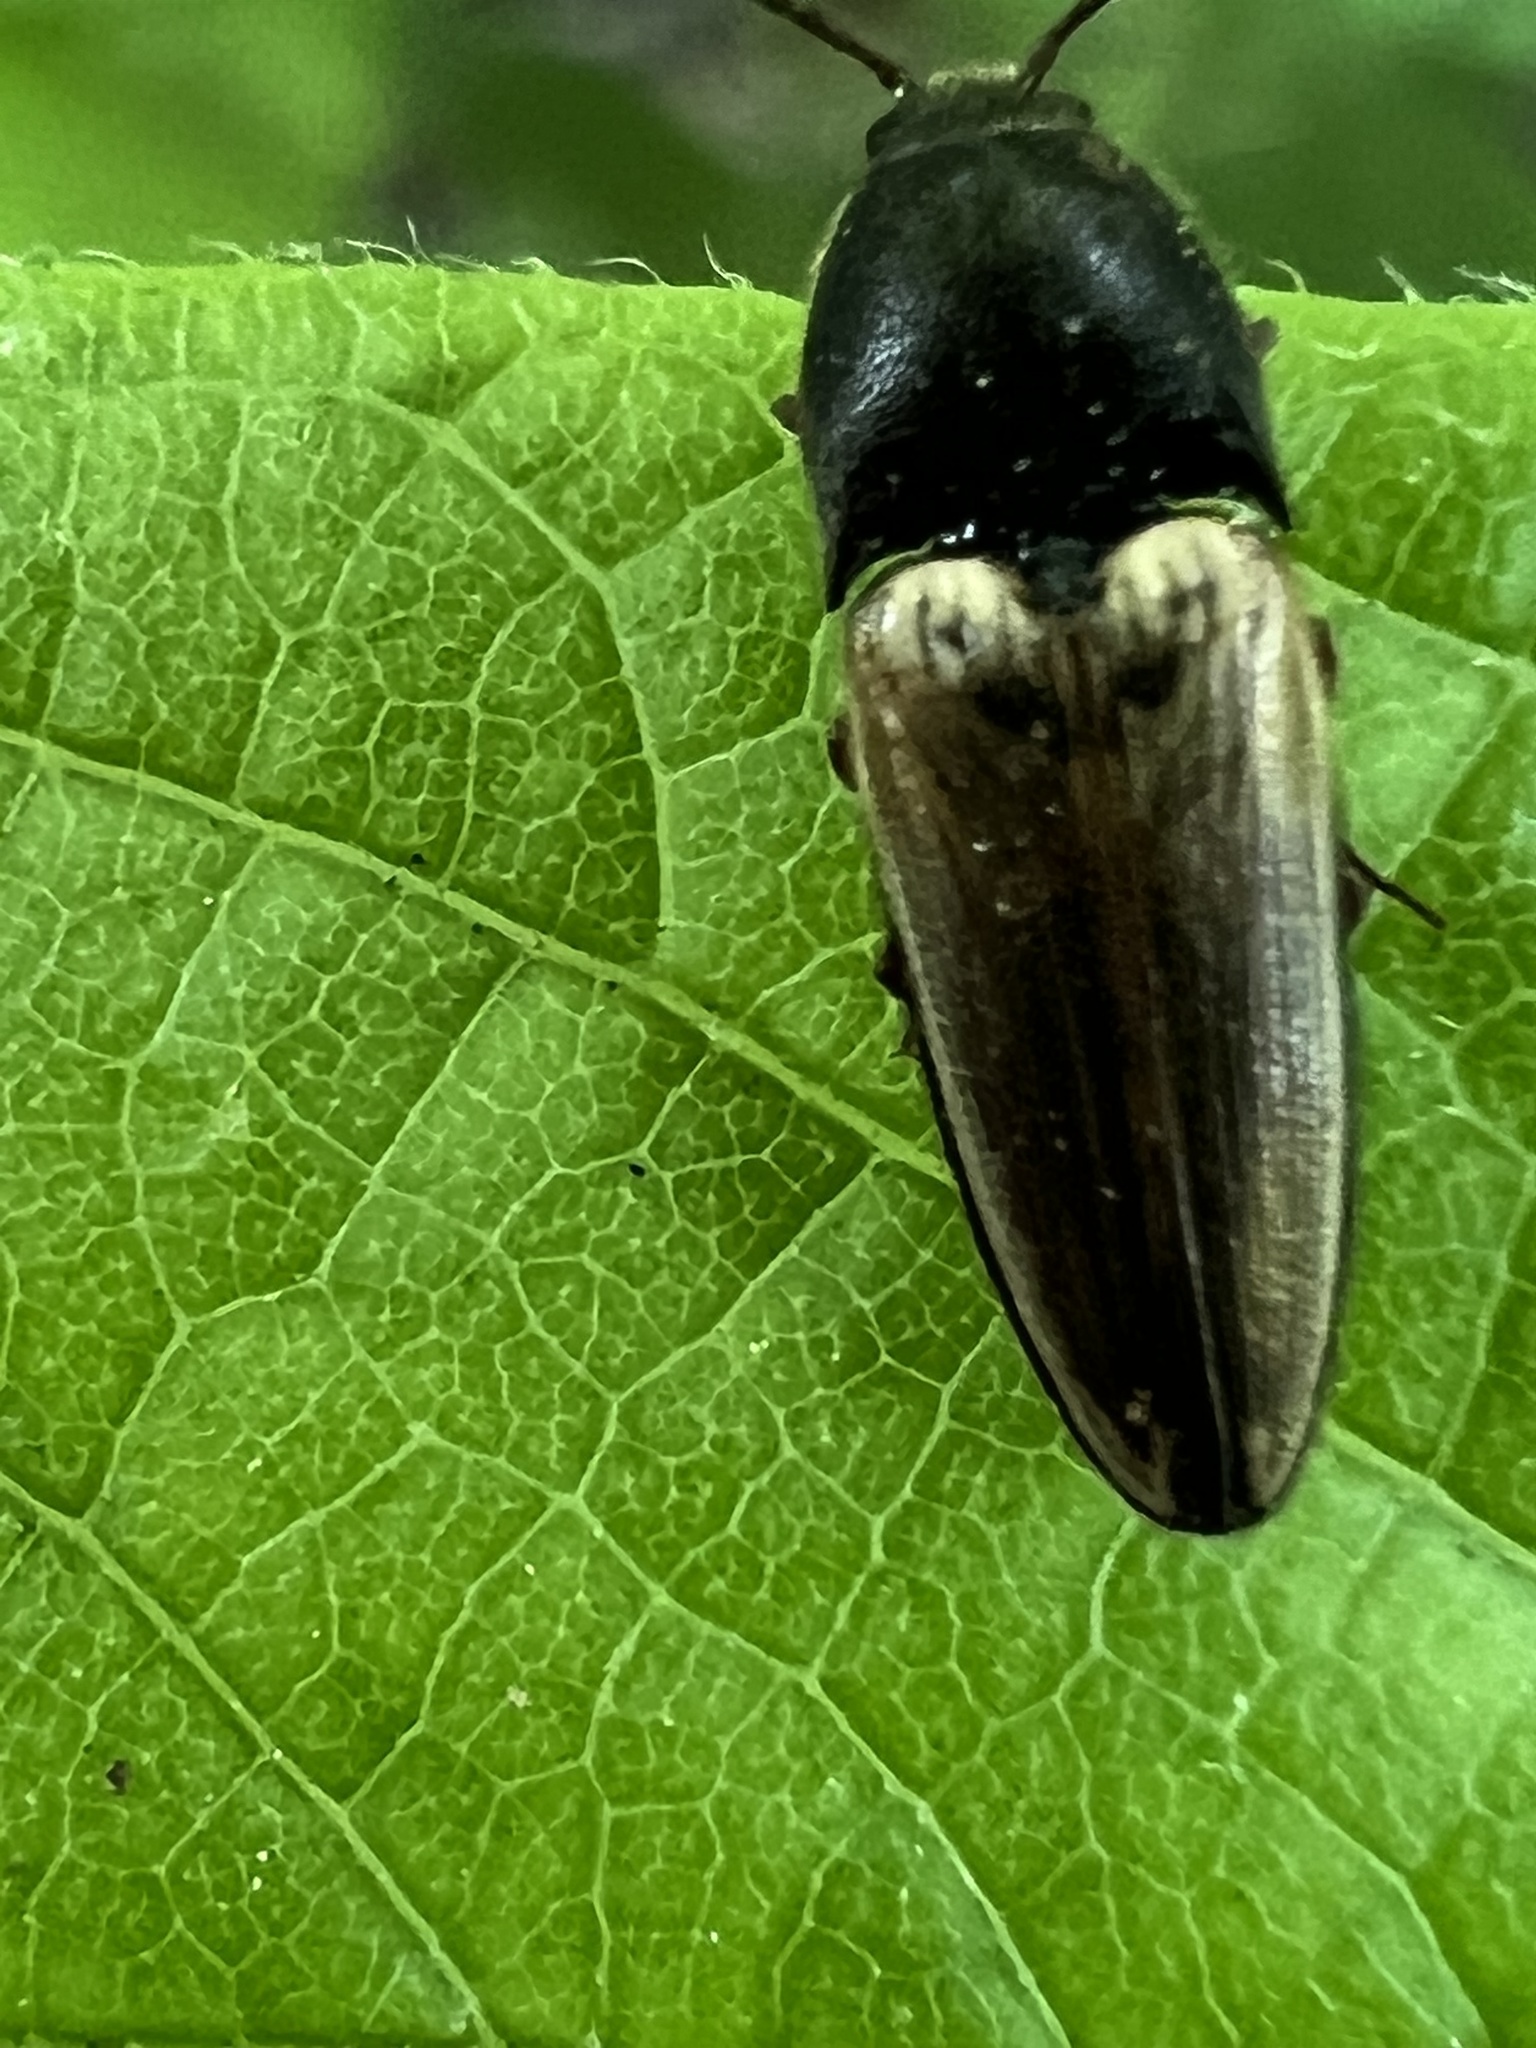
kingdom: Animalia
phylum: Arthropoda
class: Insecta
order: Coleoptera
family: Elateridae
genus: Ampedus
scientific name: Ampedus nigricollis
